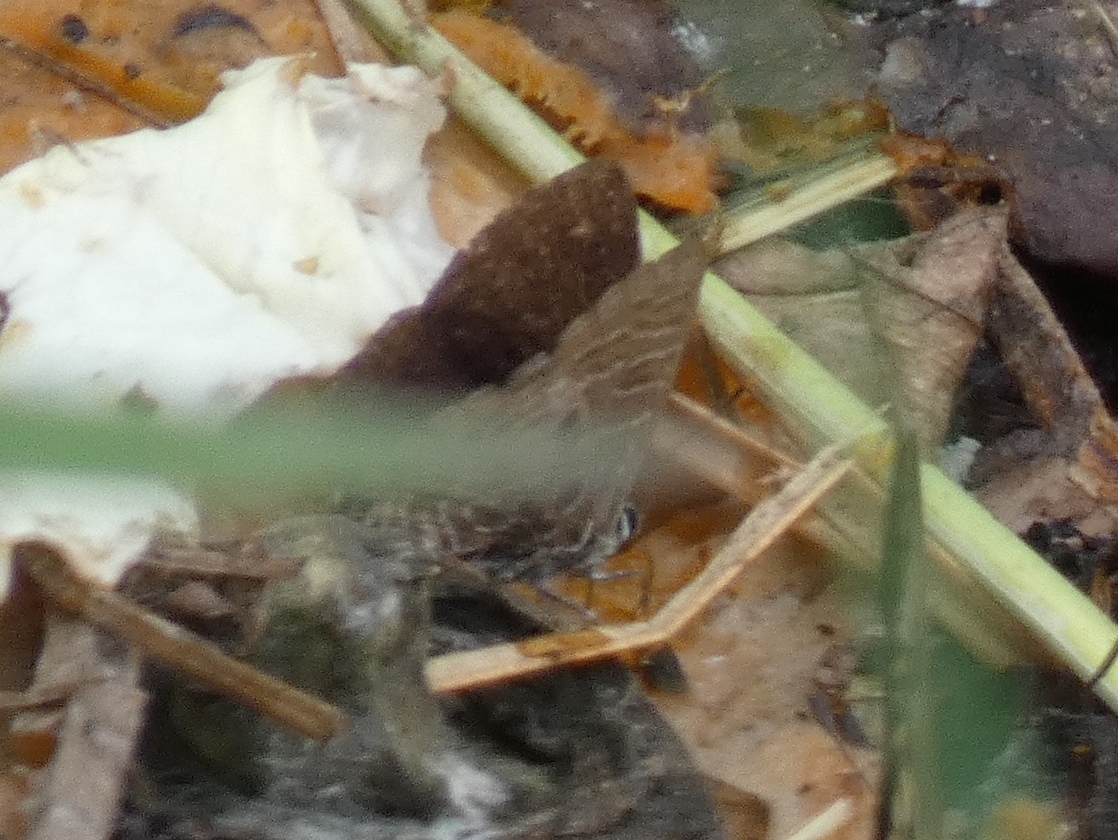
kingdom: Animalia
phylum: Arthropoda
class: Insecta
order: Lepidoptera
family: Lycaenidae
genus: Anthene
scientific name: Anthene larydas
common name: Forest hairtail
